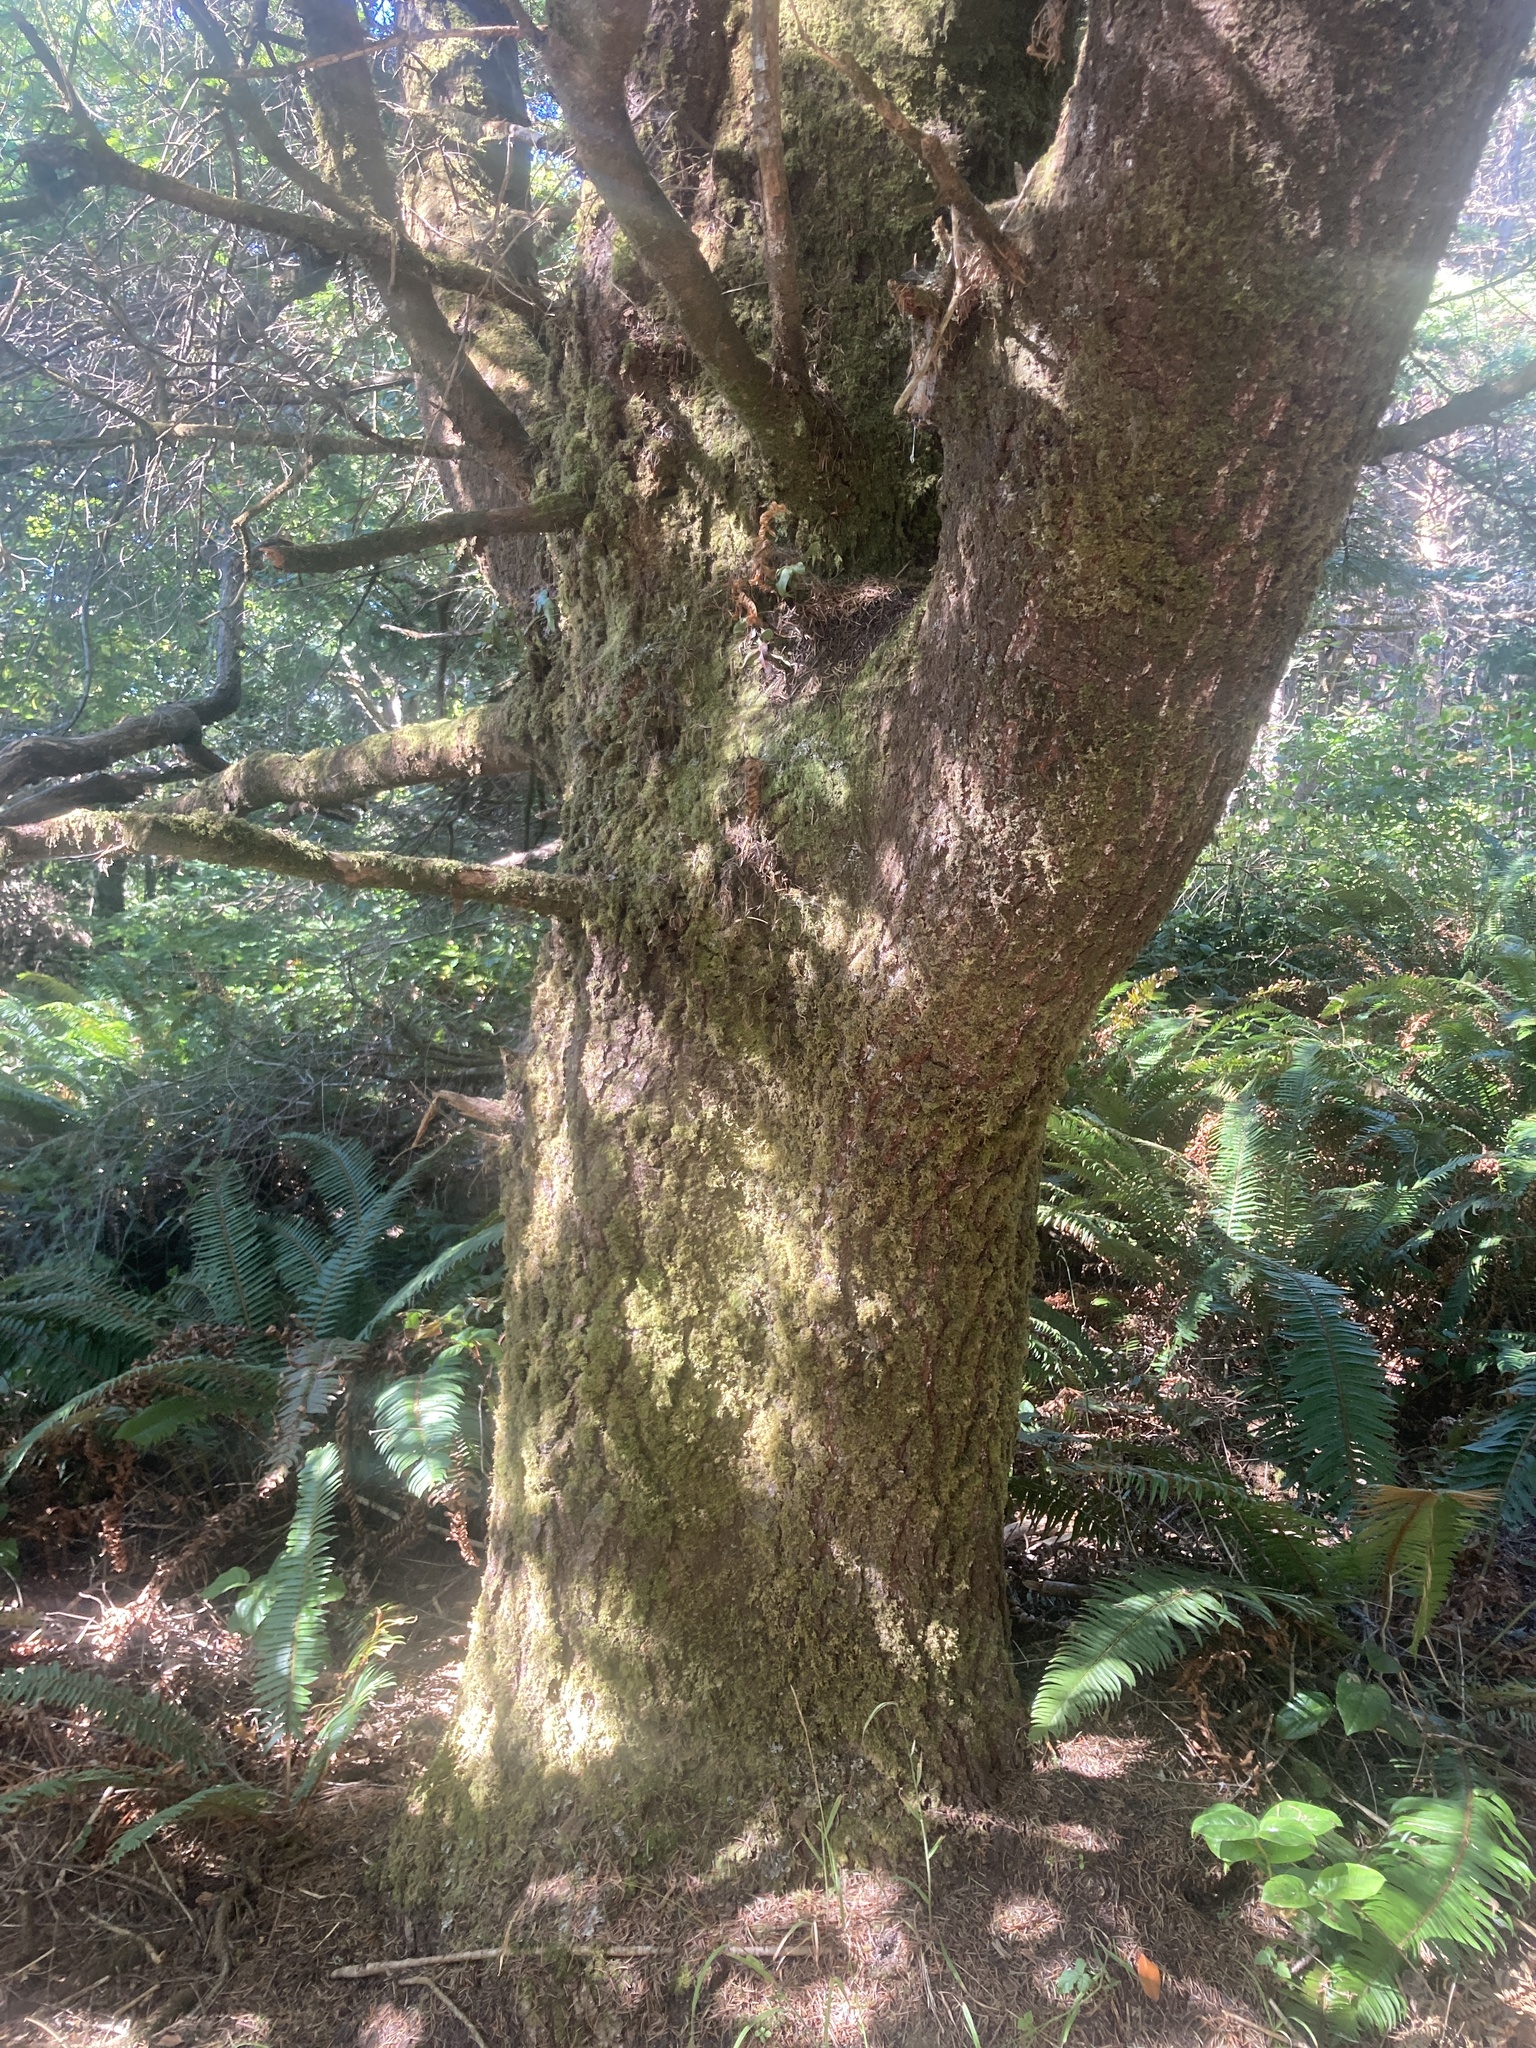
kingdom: Plantae
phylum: Tracheophyta
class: Pinopsida
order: Pinales
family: Pinaceae
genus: Abies
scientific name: Abies grandis
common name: Giant fir
